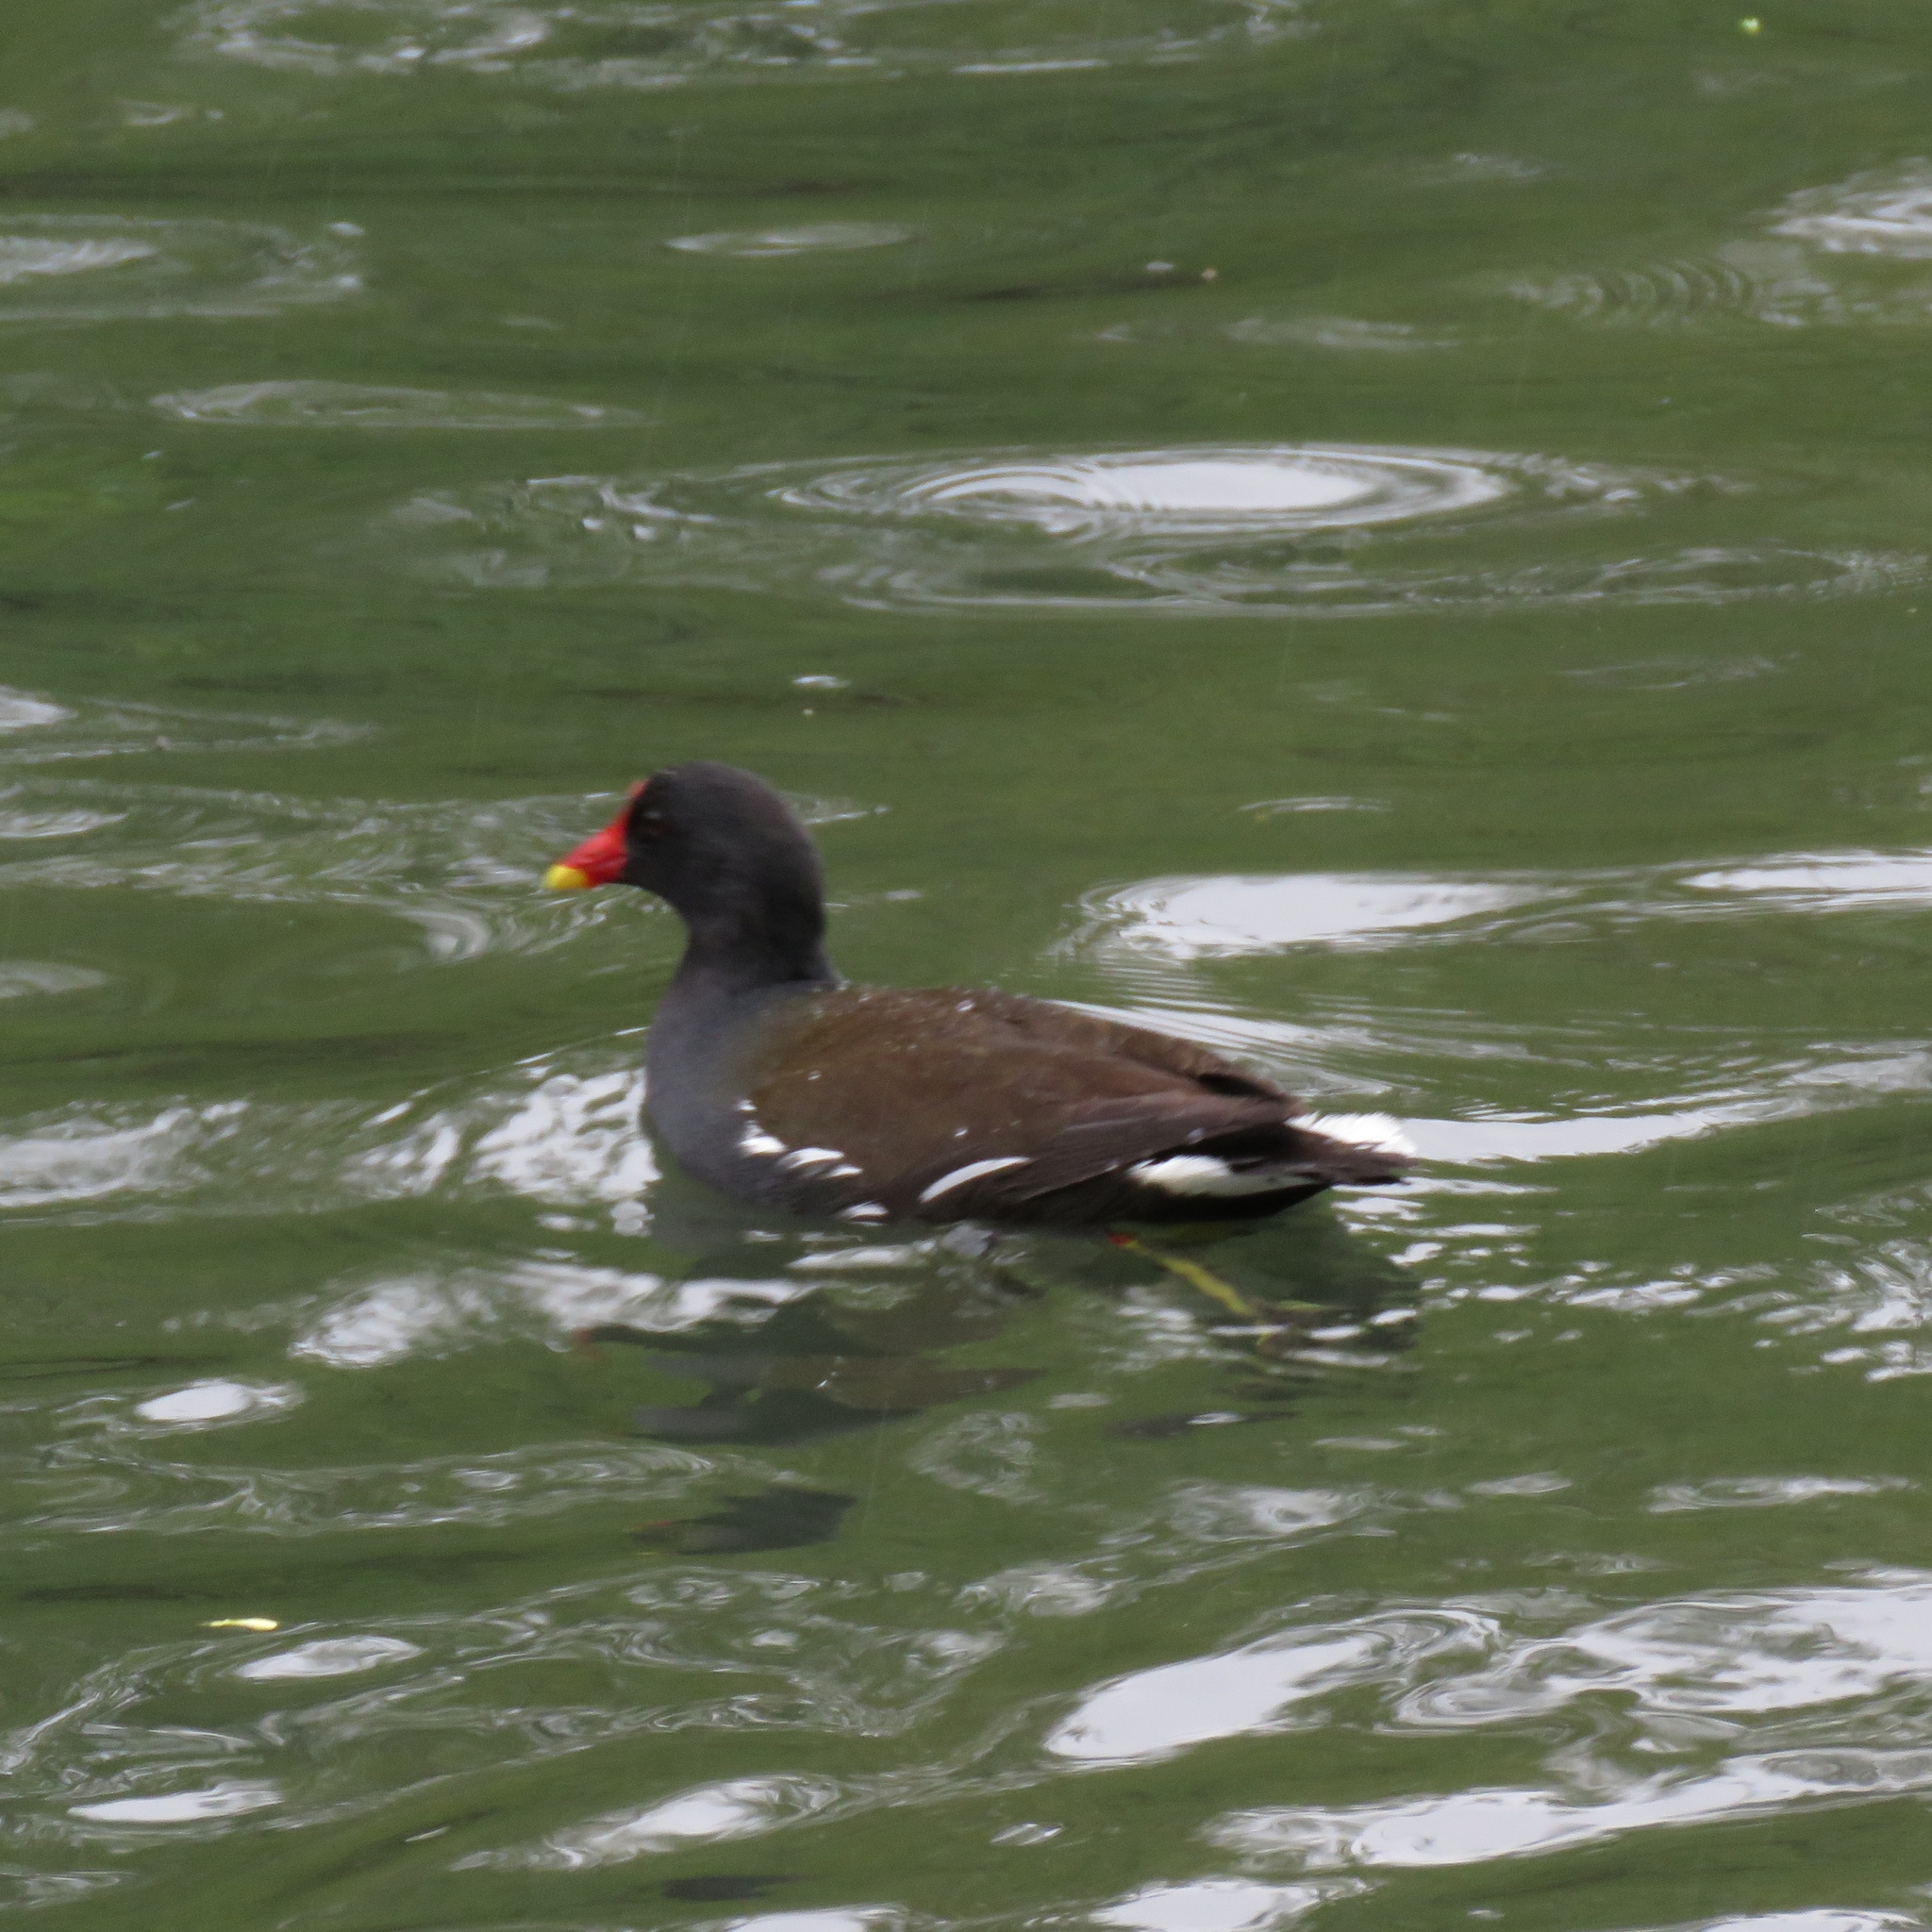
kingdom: Animalia
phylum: Chordata
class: Aves
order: Gruiformes
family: Rallidae
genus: Gallinula
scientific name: Gallinula chloropus
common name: Common moorhen
